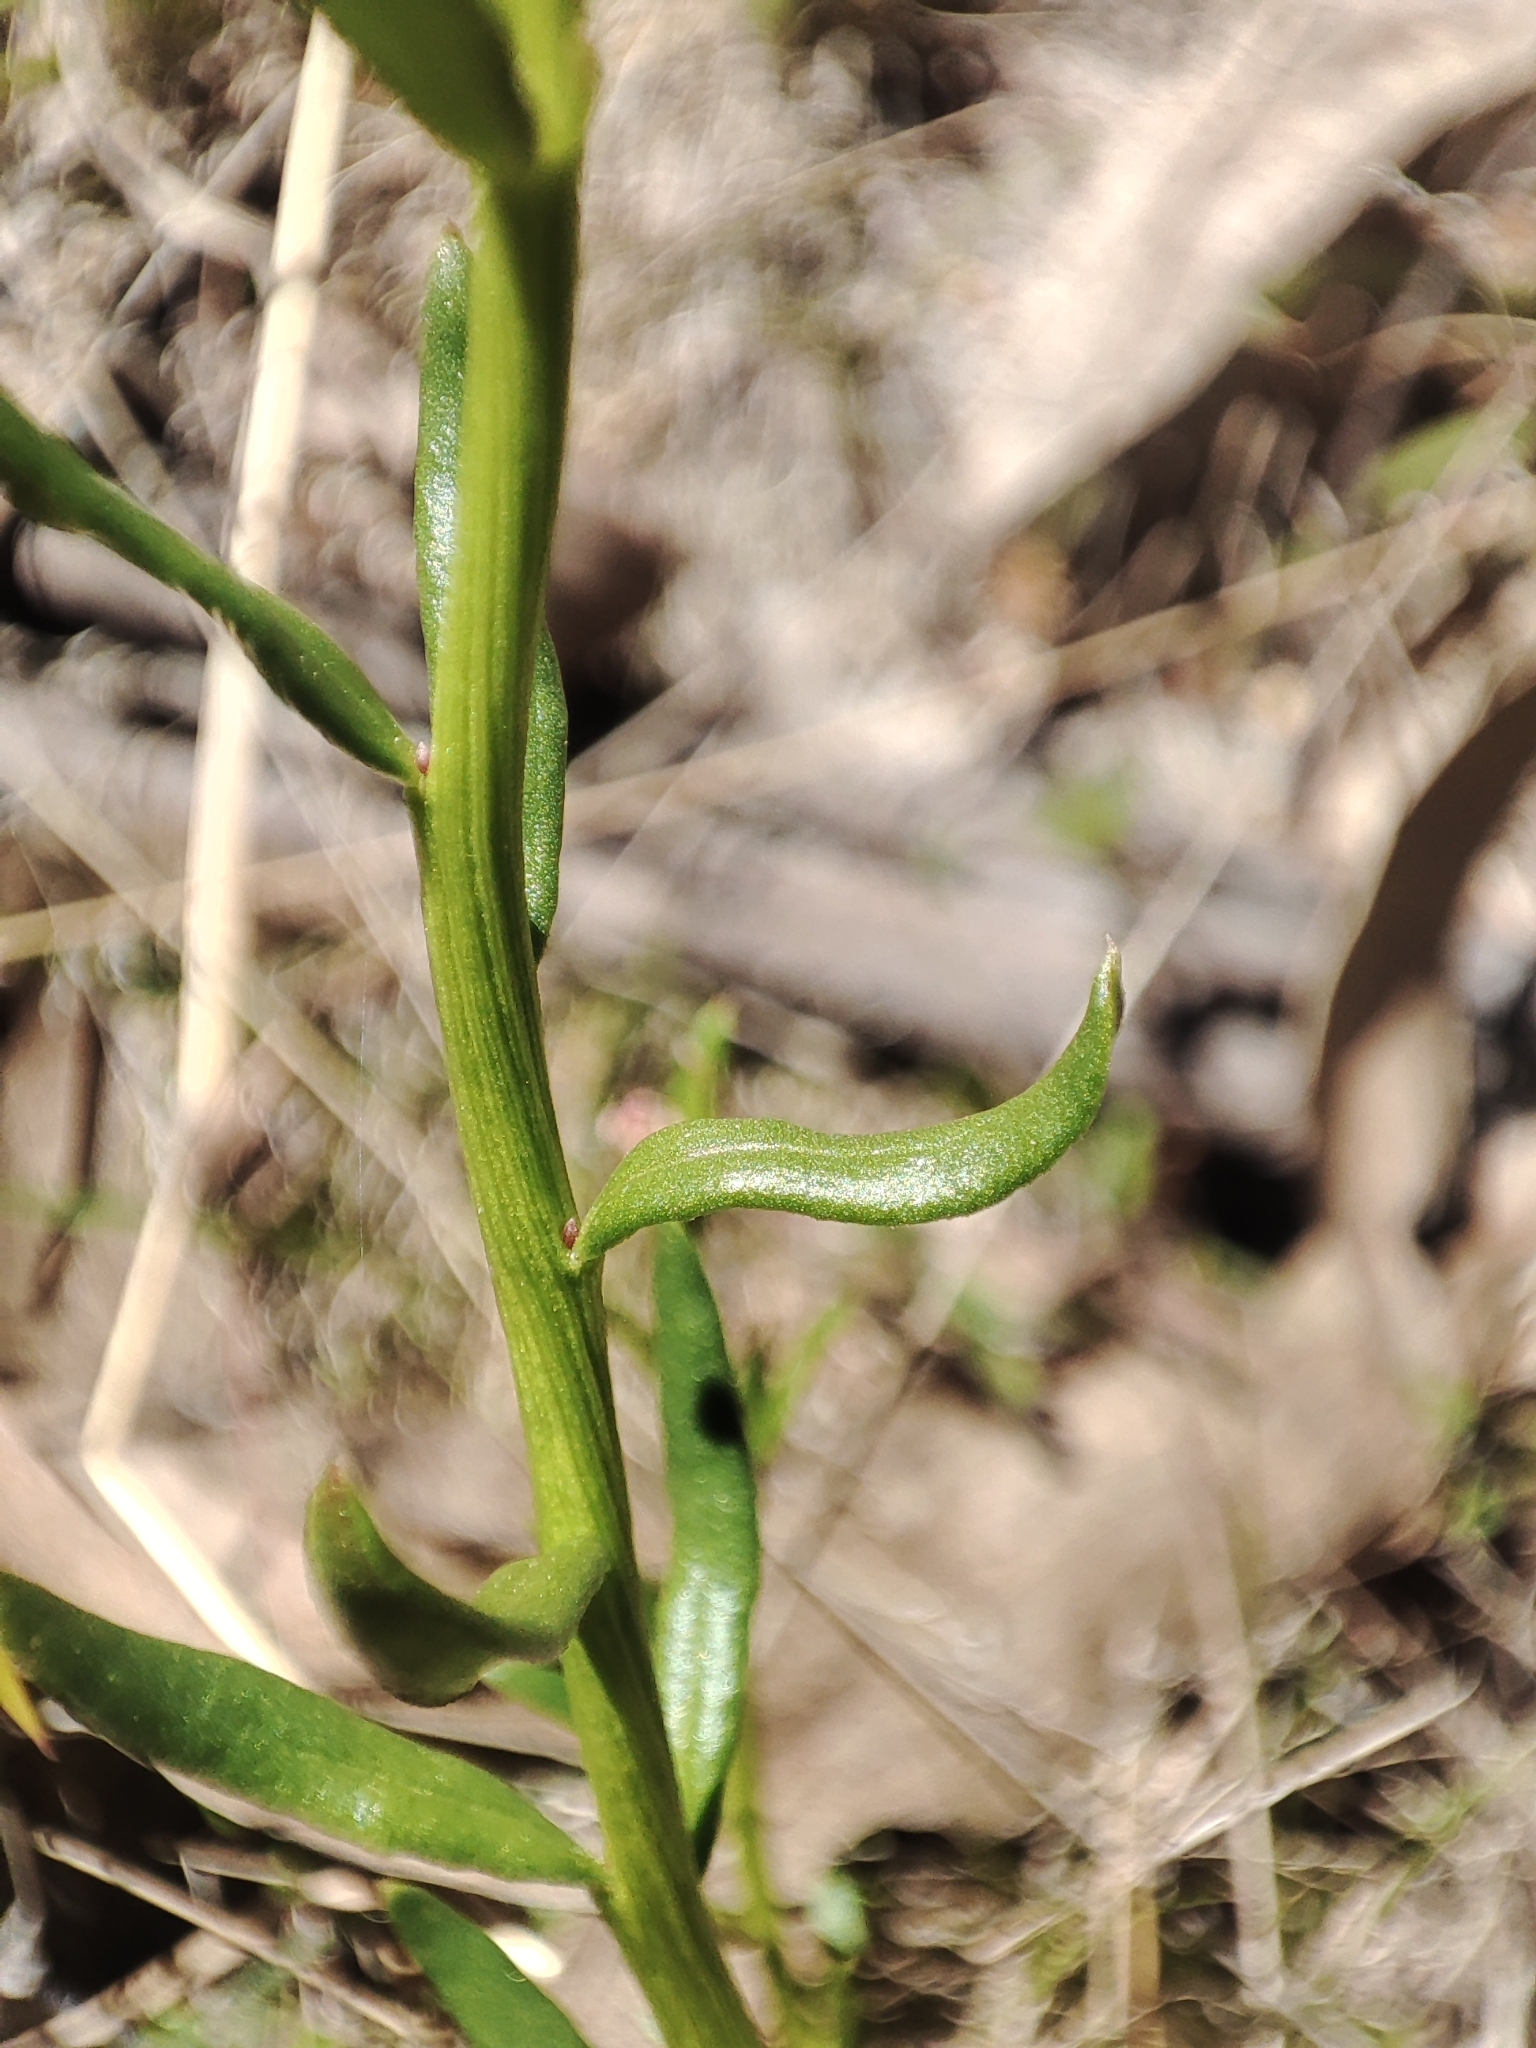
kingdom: Plantae
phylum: Tracheophyta
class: Magnoliopsida
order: Celastrales
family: Celastraceae
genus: Stackhousia
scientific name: Stackhousia monogyna
